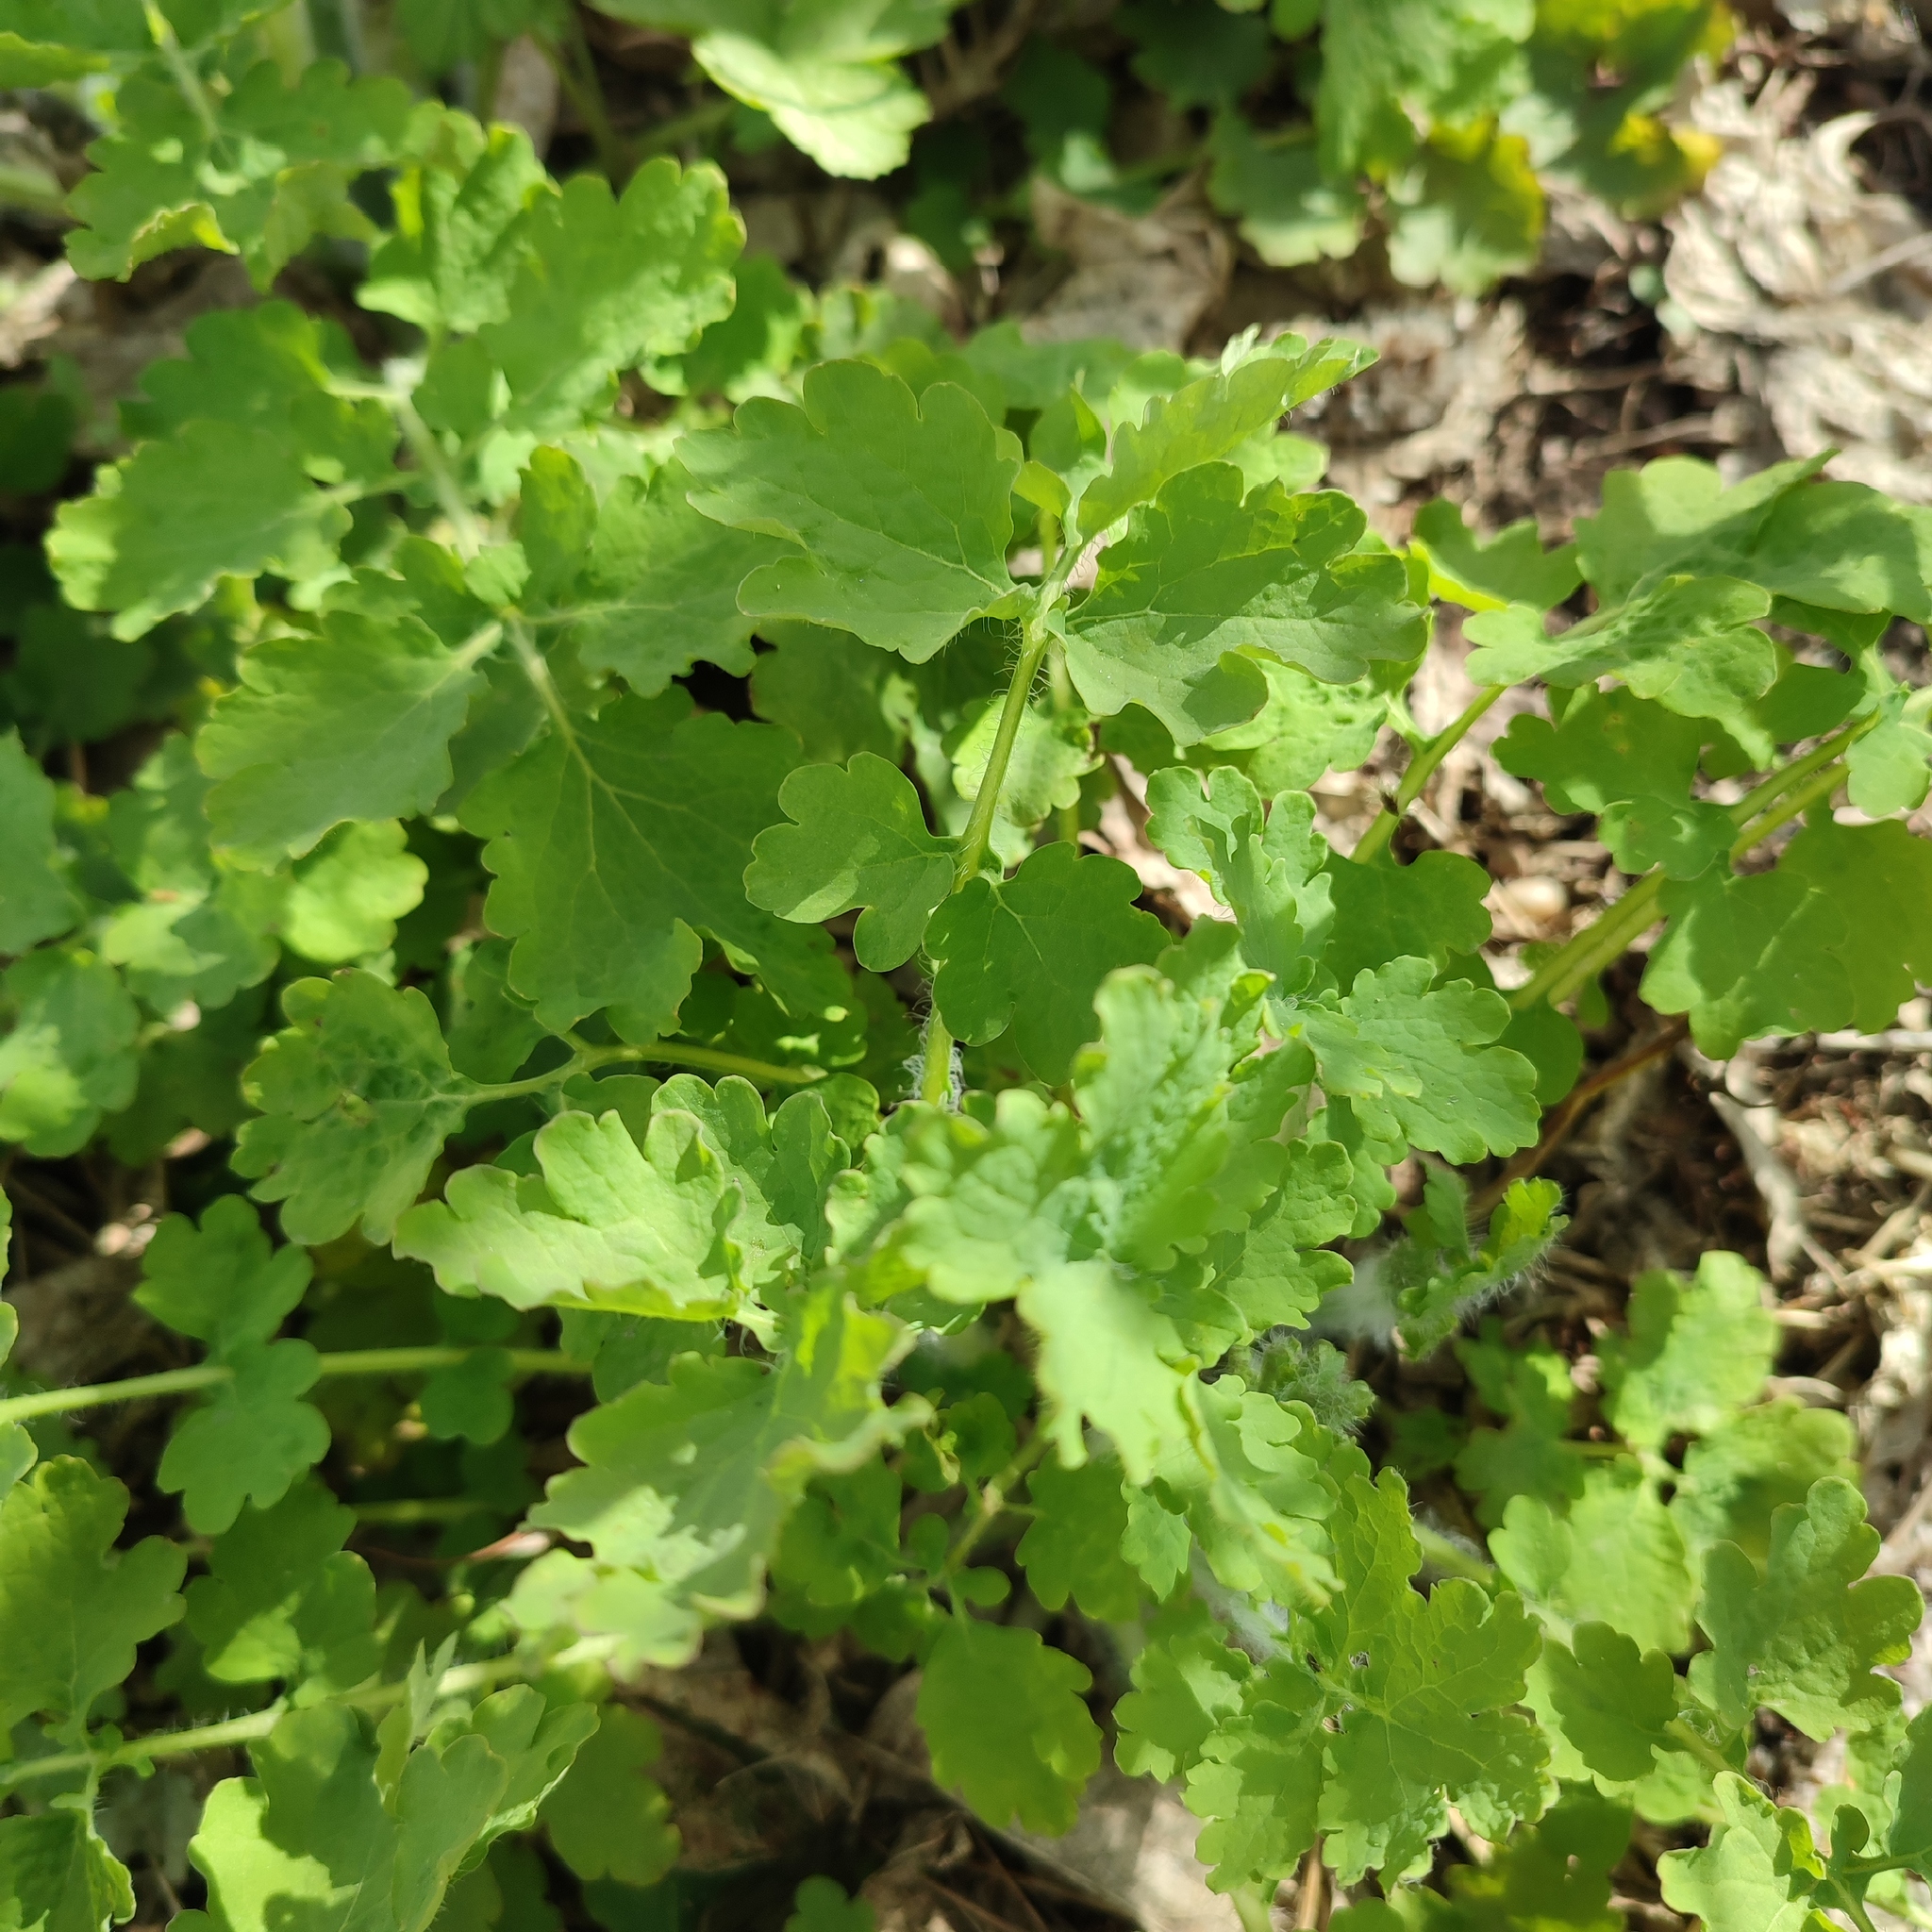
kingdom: Plantae
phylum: Tracheophyta
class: Magnoliopsida
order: Ranunculales
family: Papaveraceae
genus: Chelidonium
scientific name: Chelidonium majus
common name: Greater celandine
